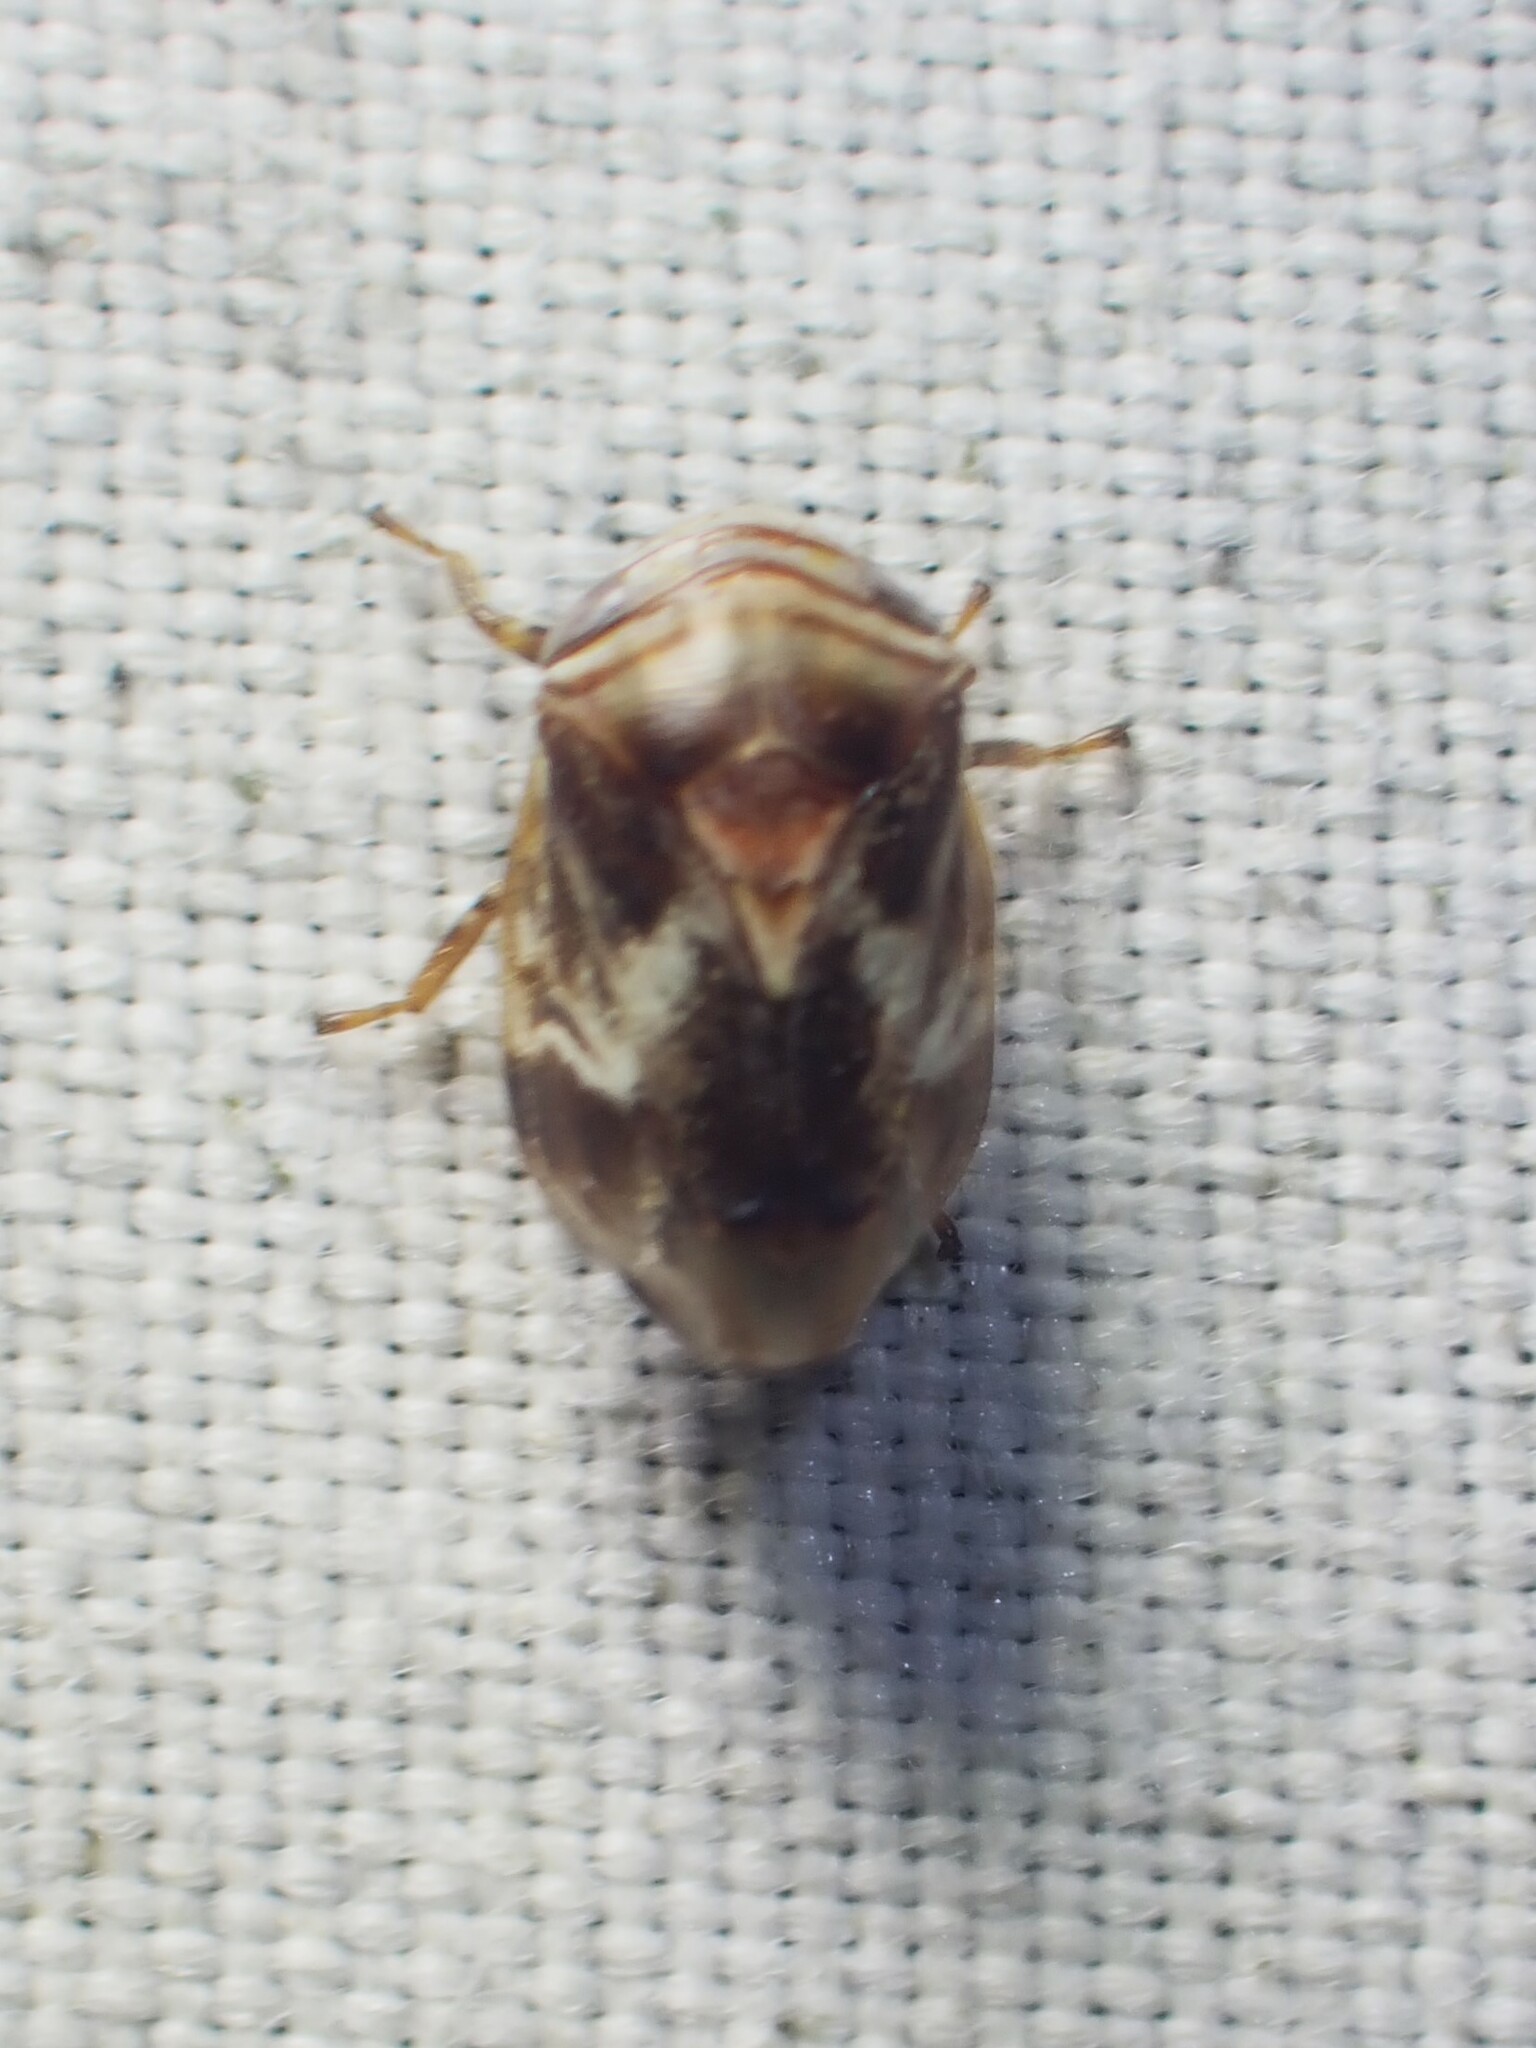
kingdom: Animalia
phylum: Arthropoda
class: Insecta
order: Hemiptera
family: Clastopteridae
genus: Clastoptera
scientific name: Clastoptera obtusa
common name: Alder spittlebug
